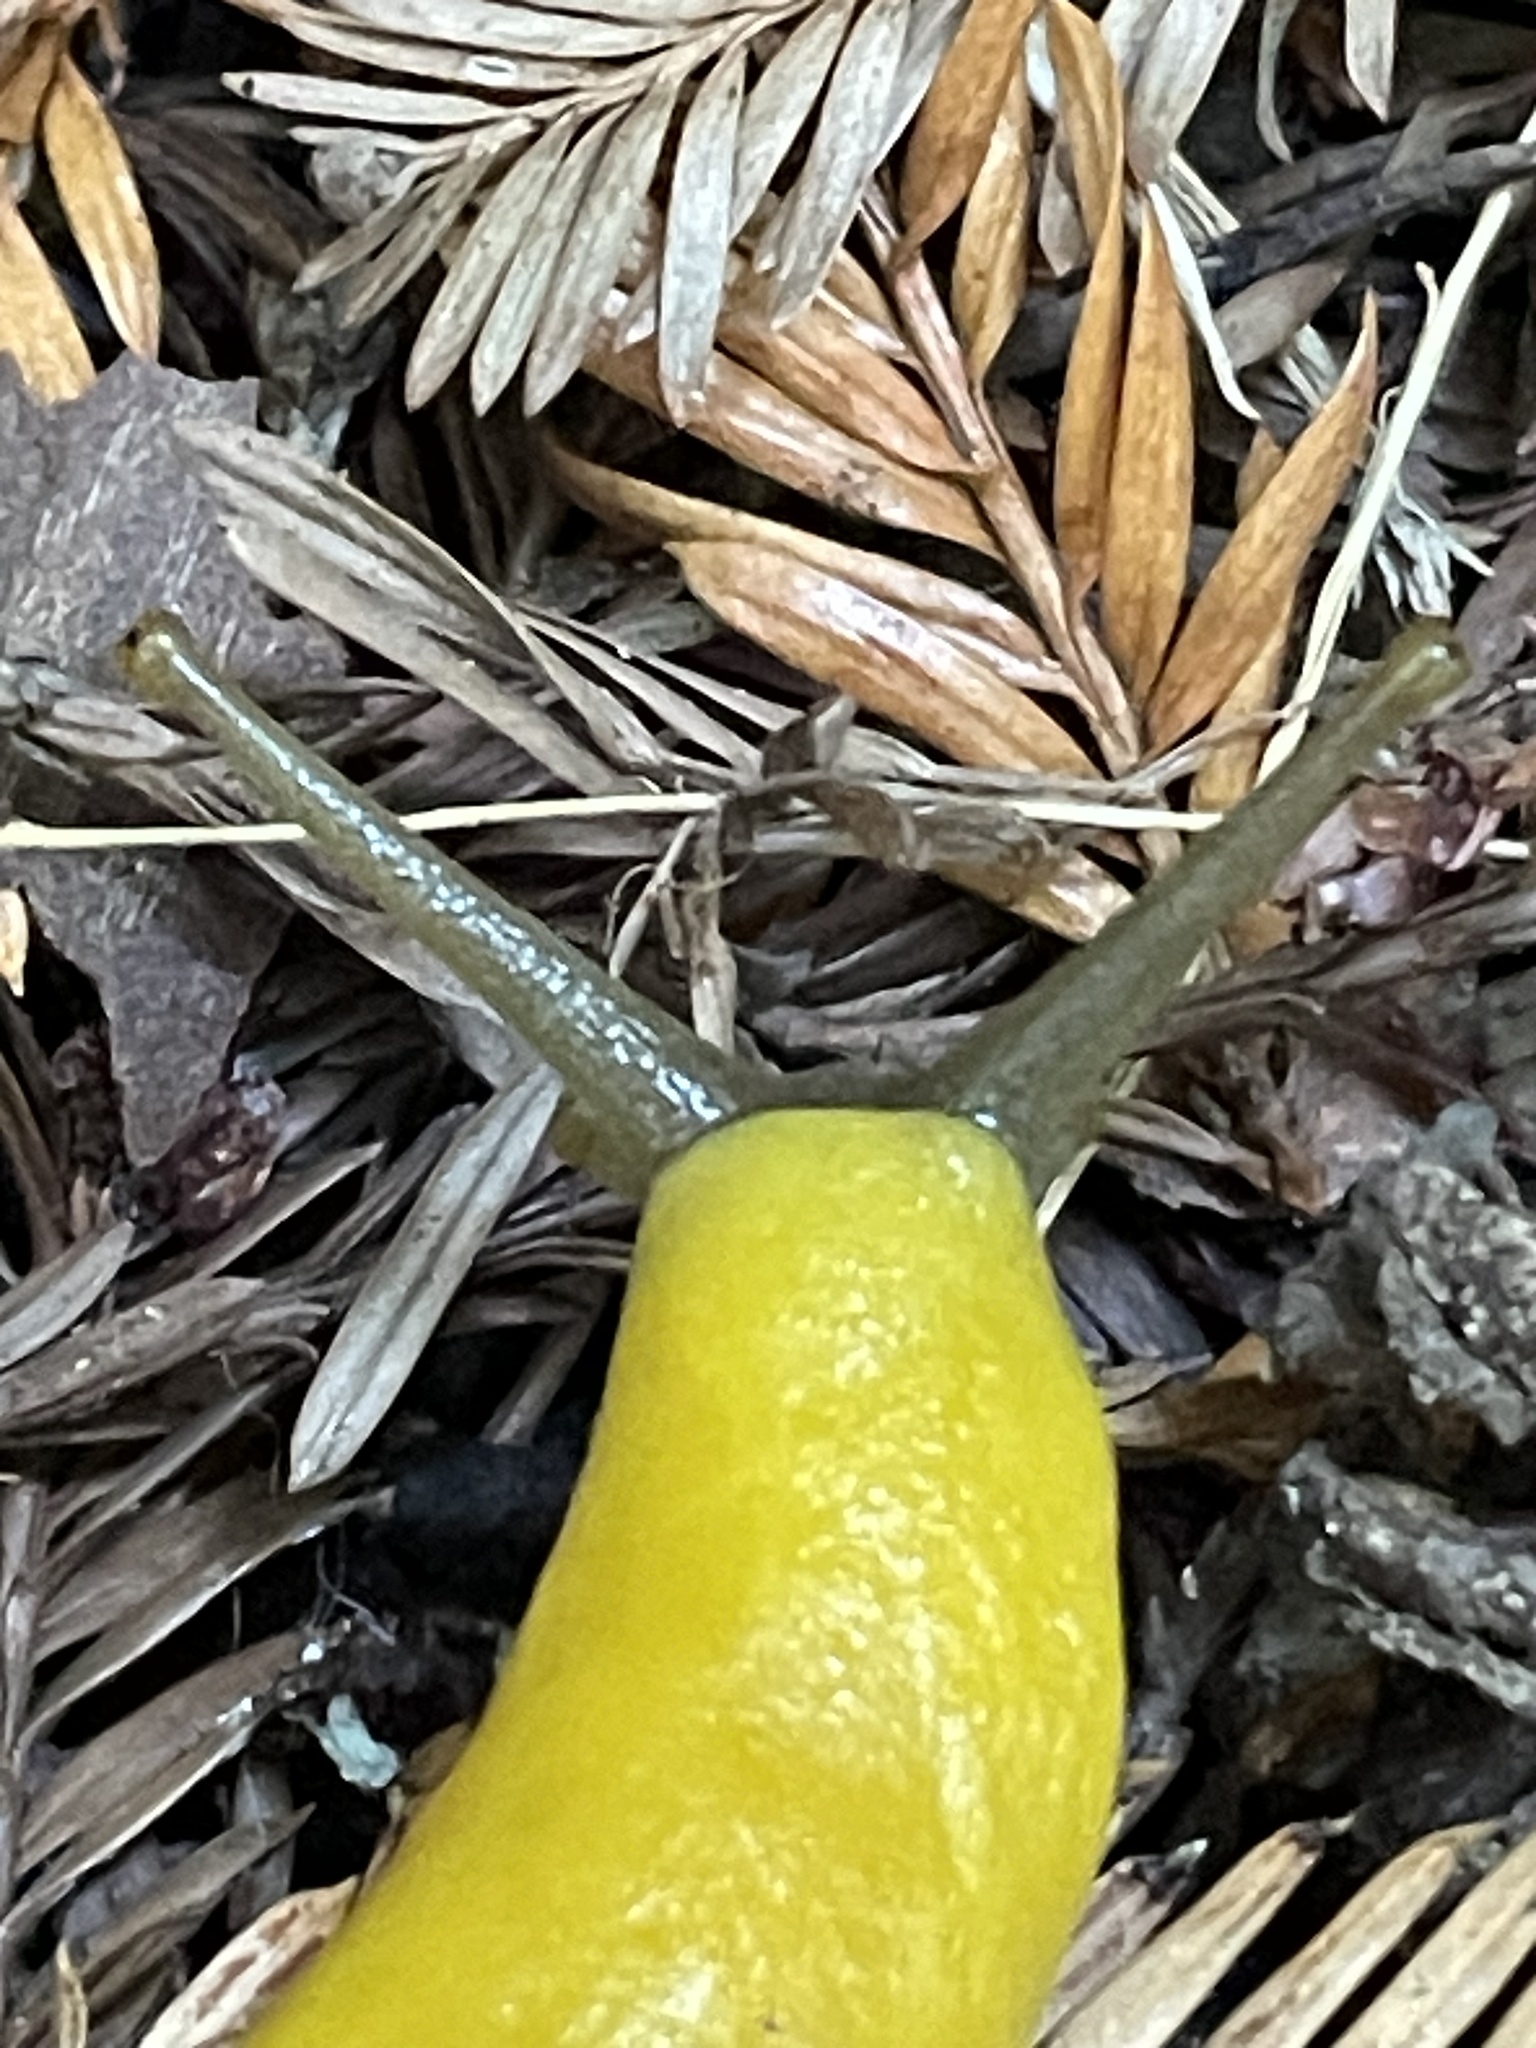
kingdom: Animalia
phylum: Mollusca
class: Gastropoda
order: Stylommatophora
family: Ariolimacidae
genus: Ariolimax
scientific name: Ariolimax dolichophallus
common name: Slender banana slug
